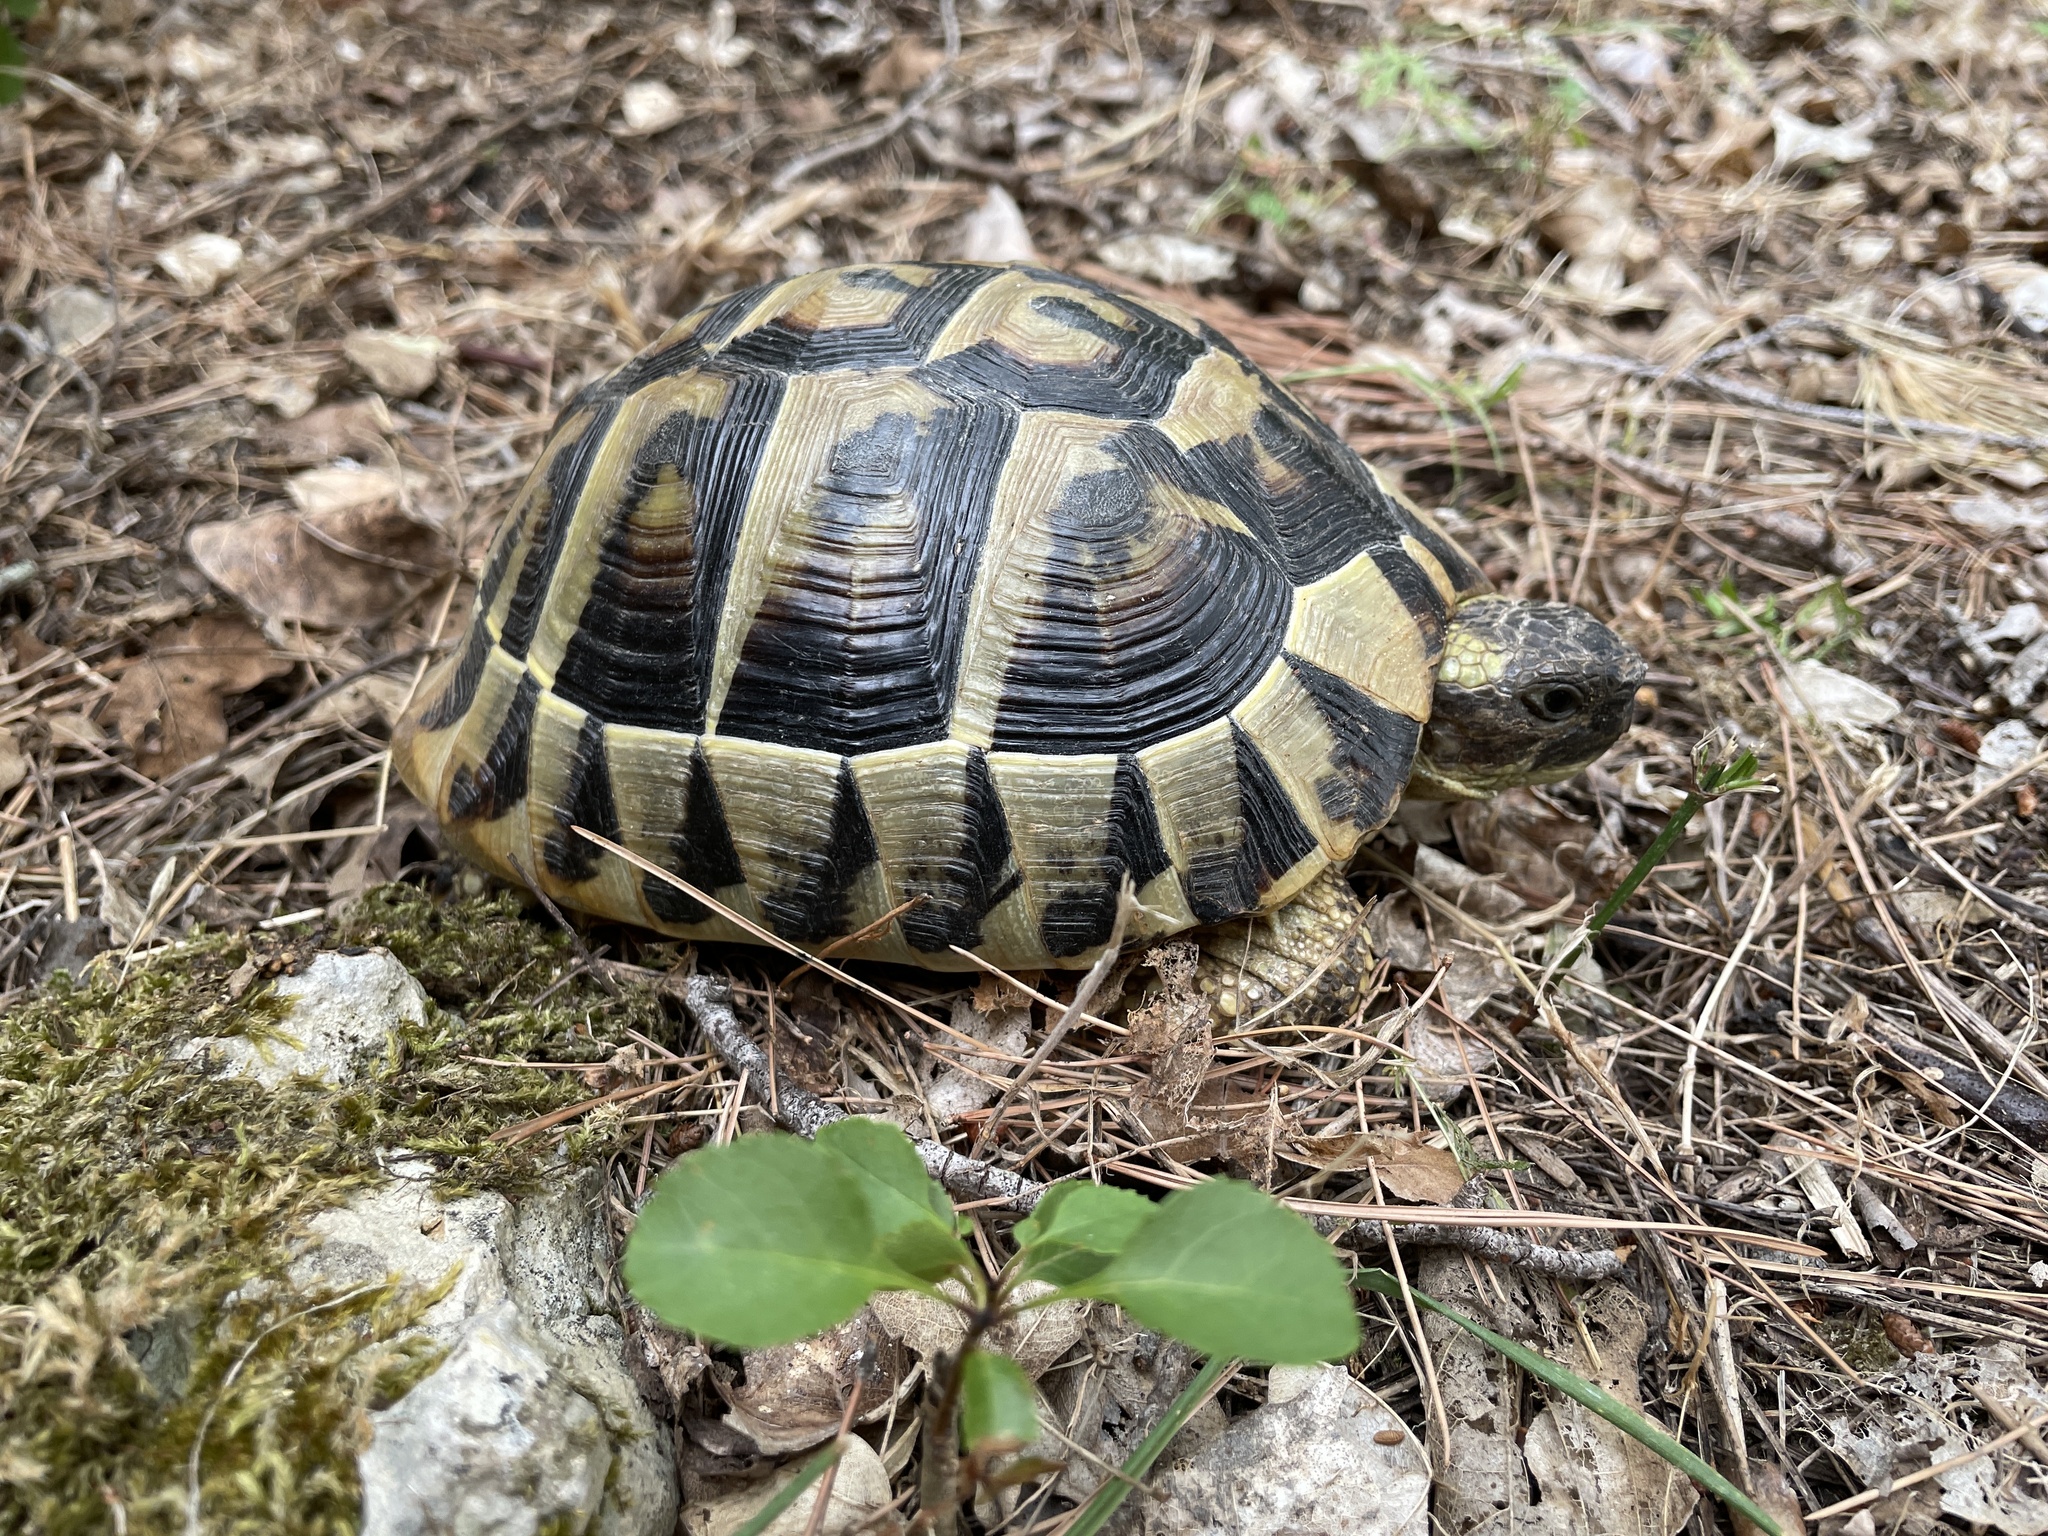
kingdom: Animalia
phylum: Chordata
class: Testudines
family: Testudinidae
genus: Testudo
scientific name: Testudo hermanni
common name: Hermann's tortoise
